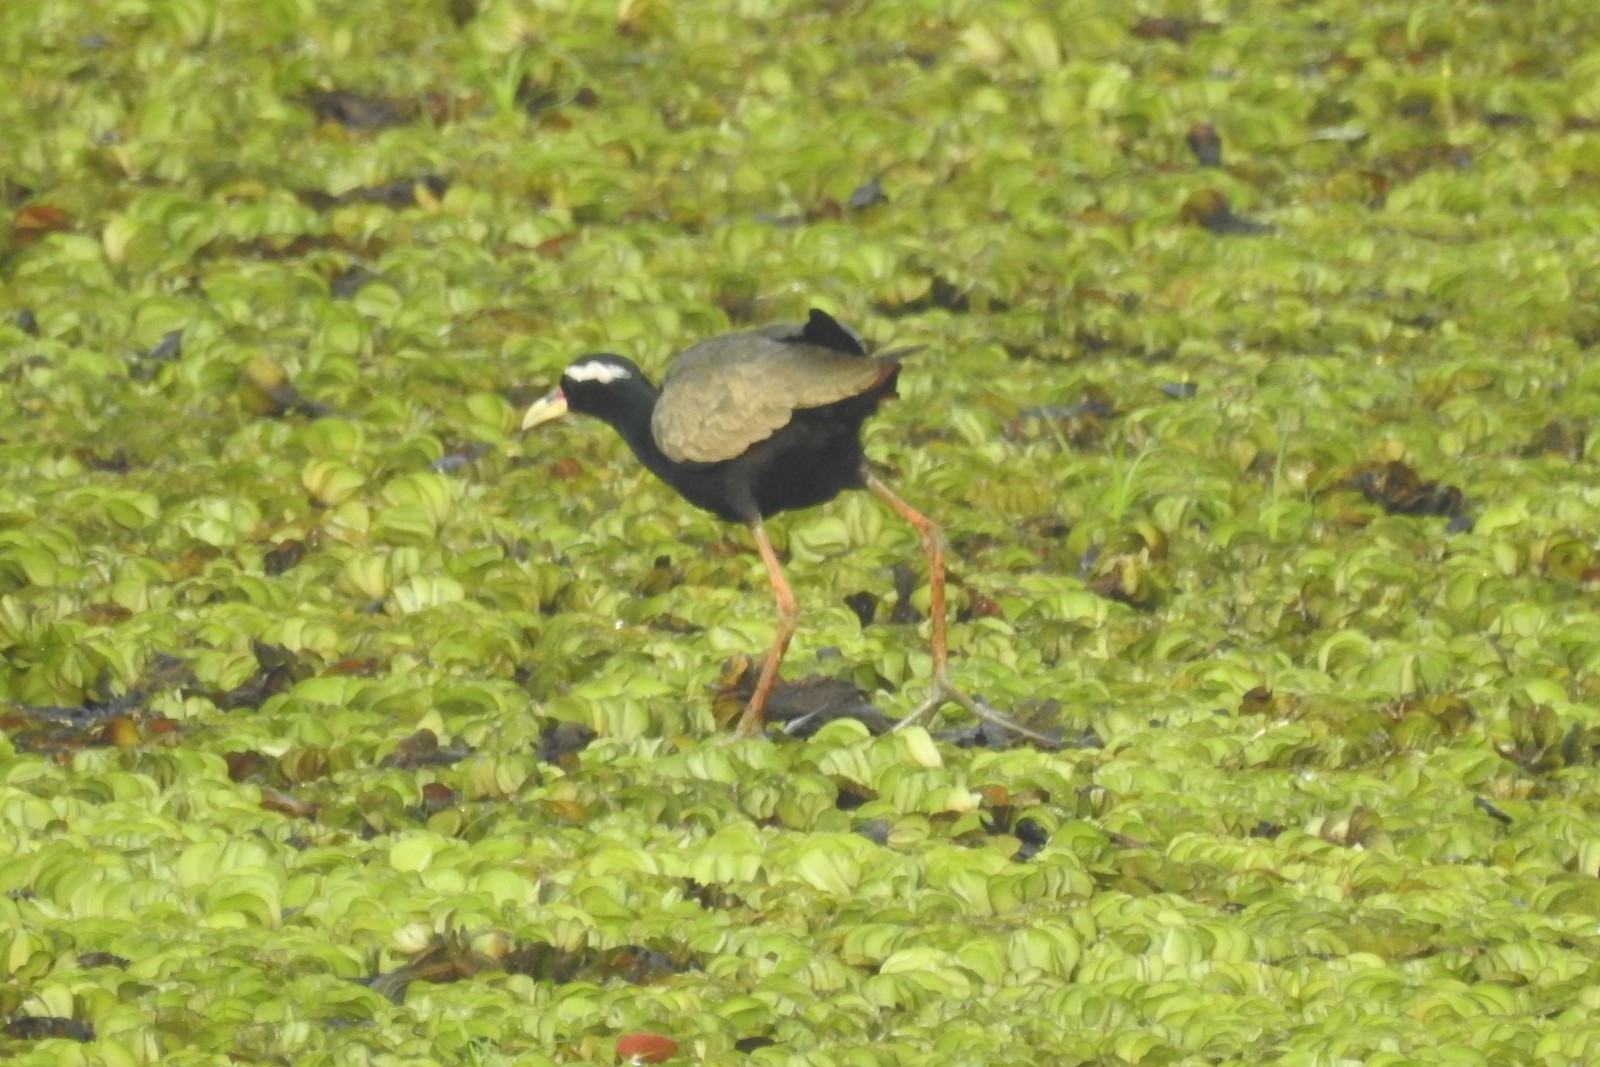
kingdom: Animalia
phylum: Chordata
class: Aves
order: Charadriiformes
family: Jacanidae
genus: Metopidius
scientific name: Metopidius indicus
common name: Bronze-winged jacana
